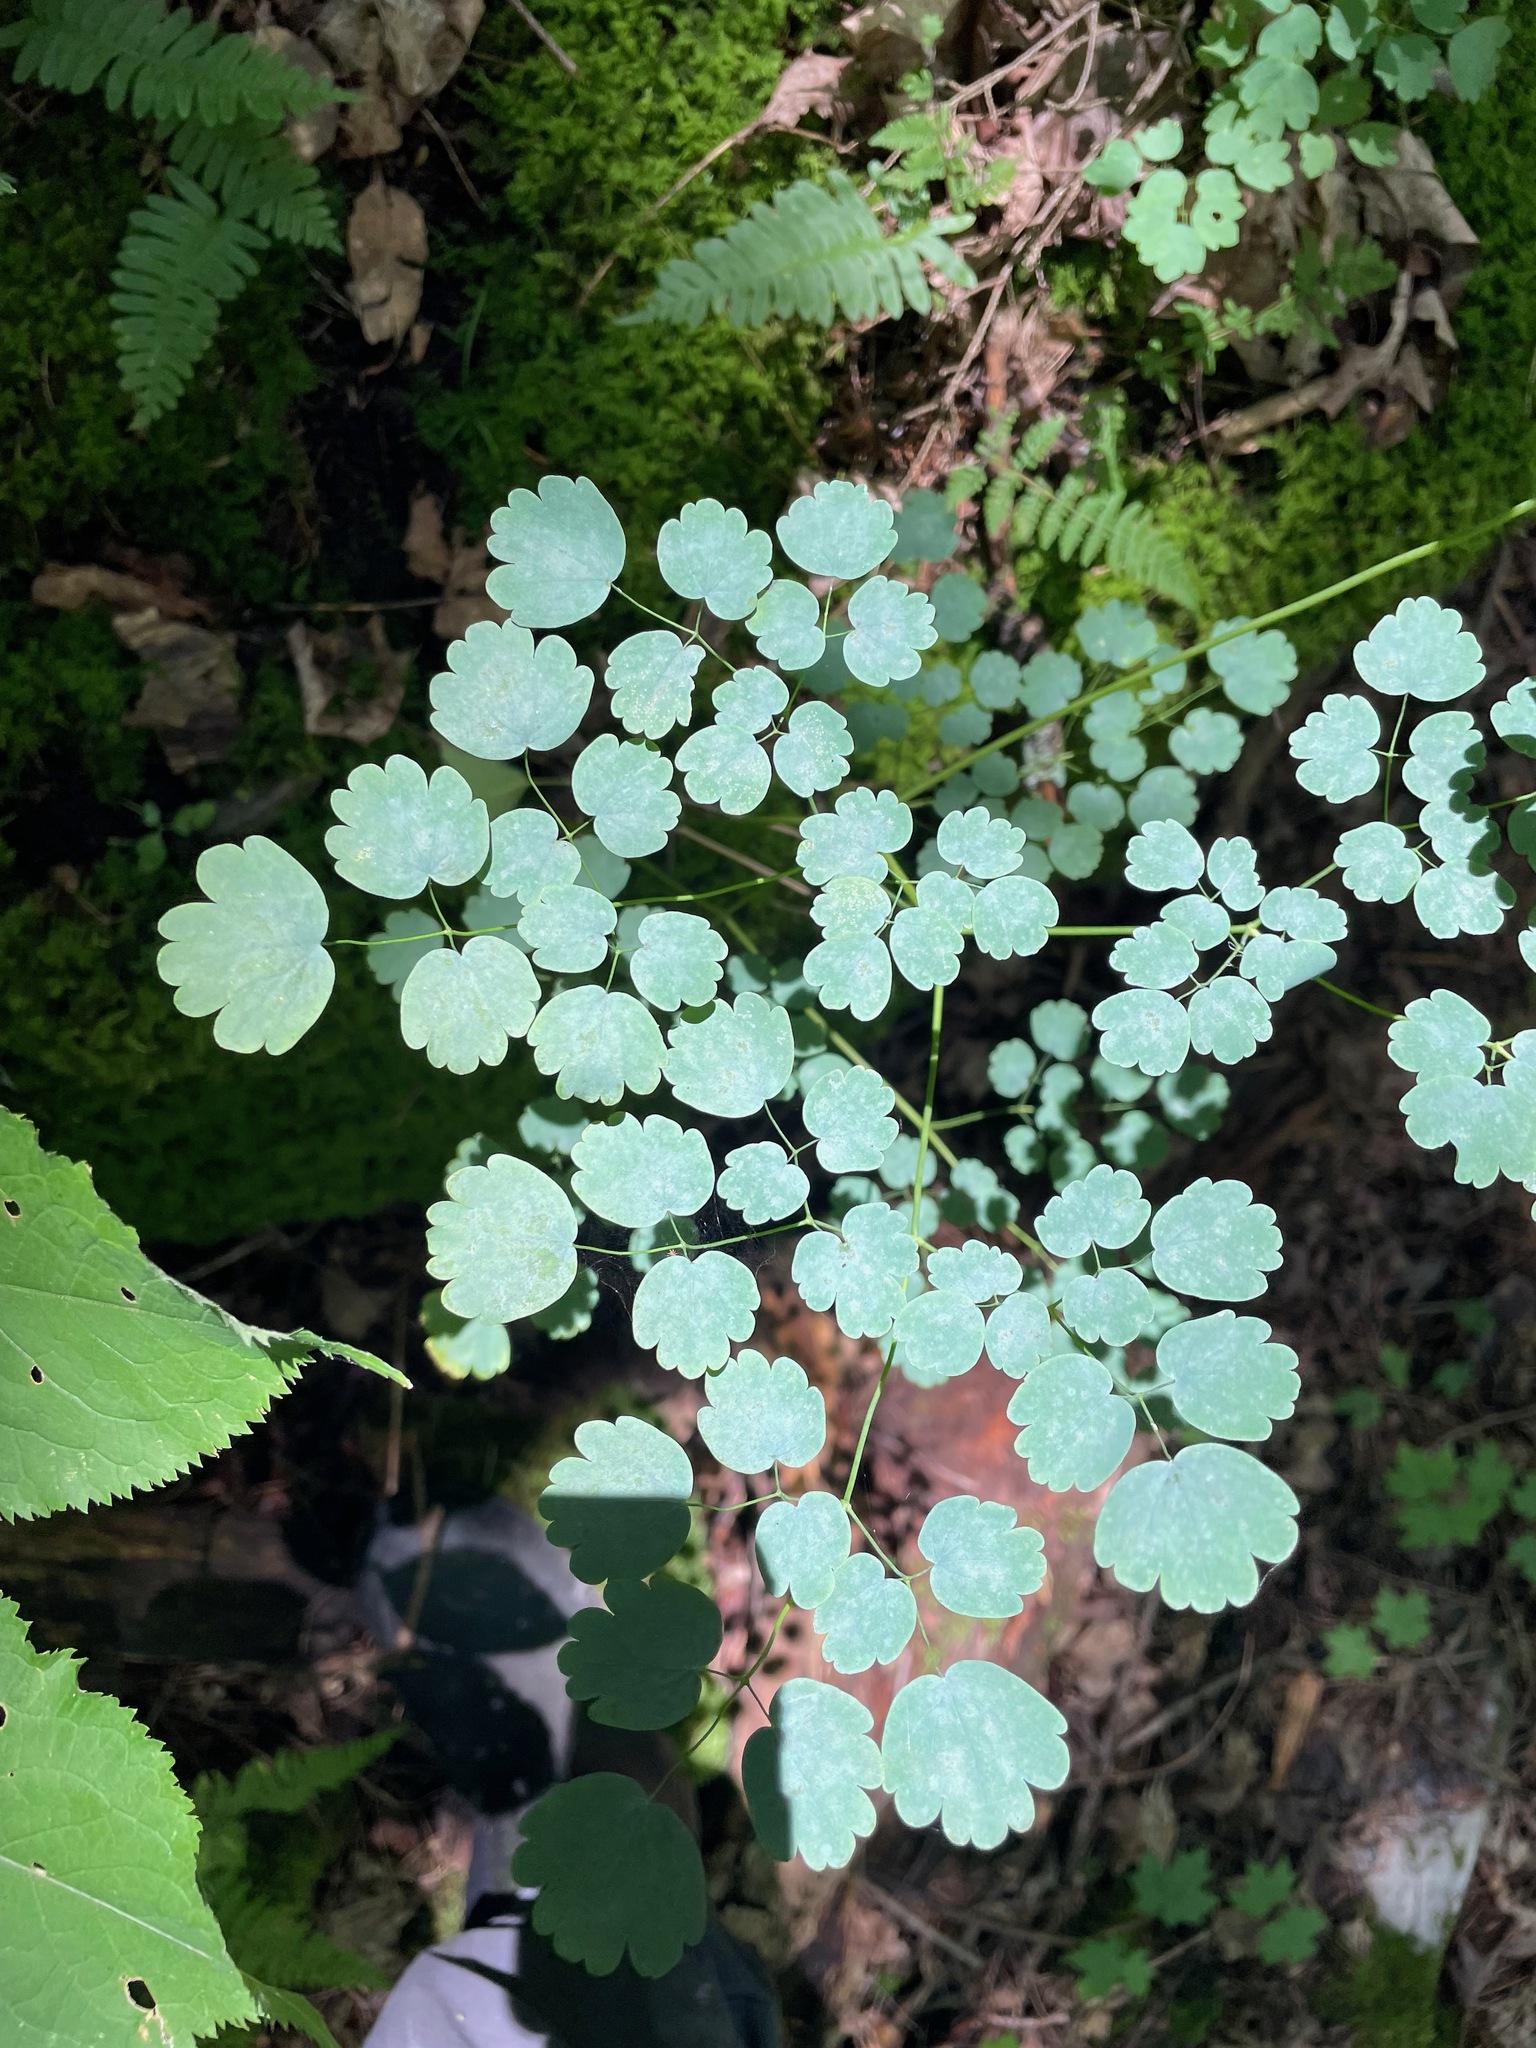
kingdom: Plantae
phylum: Tracheophyta
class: Magnoliopsida
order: Ranunculales
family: Ranunculaceae
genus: Thalictrum
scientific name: Thalictrum dioicum
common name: Early meadow-rue
